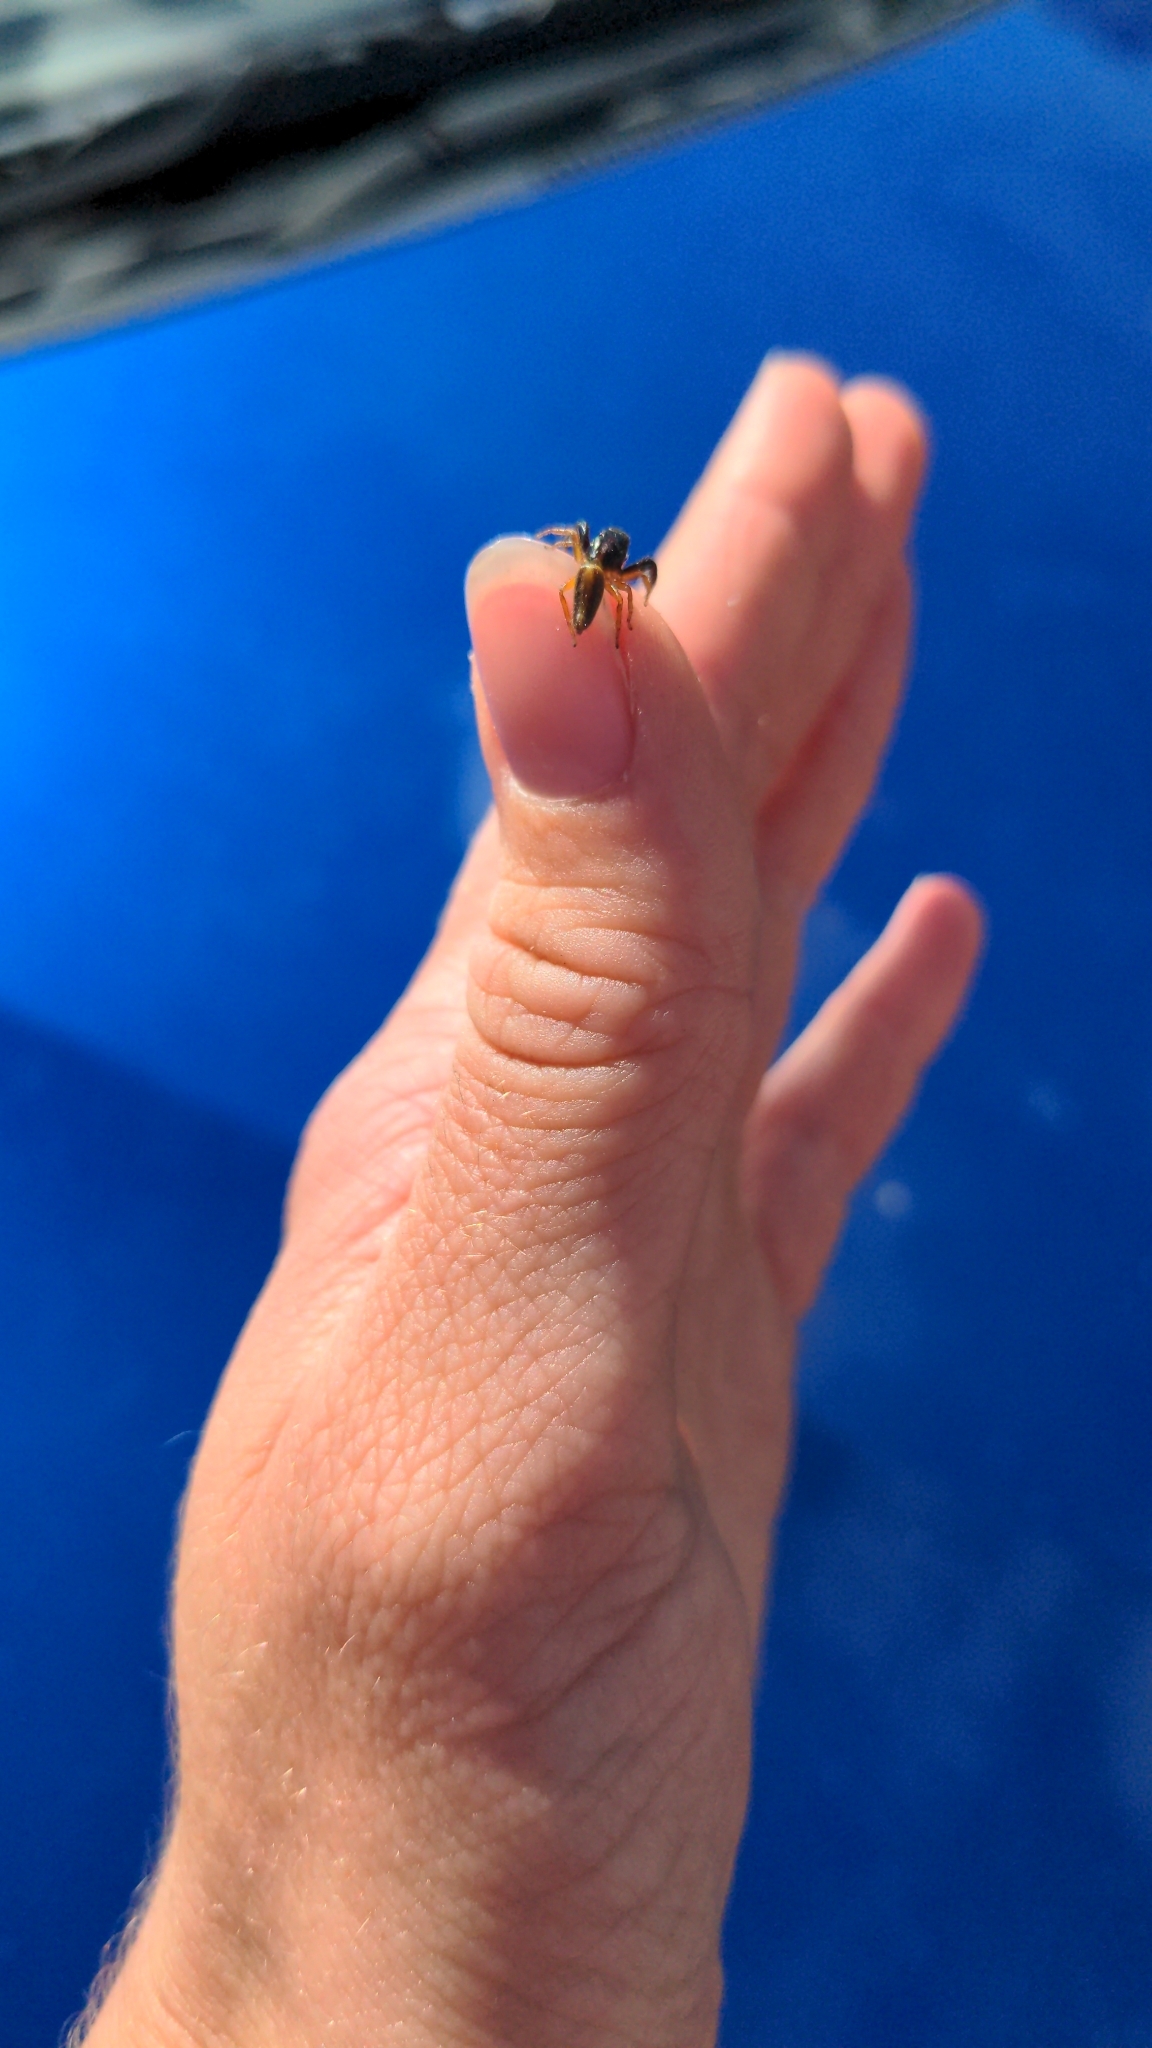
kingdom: Animalia
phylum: Arthropoda
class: Arachnida
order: Araneae
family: Salticidae
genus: Trite
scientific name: Trite planiceps
